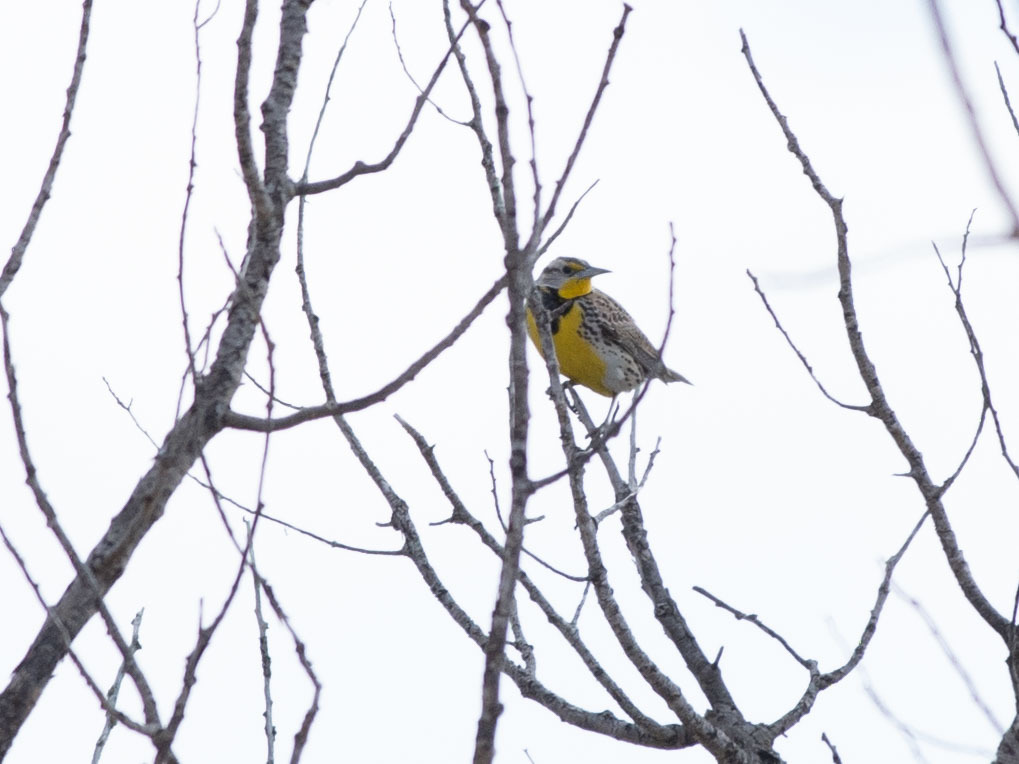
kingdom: Animalia
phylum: Chordata
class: Aves
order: Passeriformes
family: Icteridae
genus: Sturnella
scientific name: Sturnella neglecta
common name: Western meadowlark
